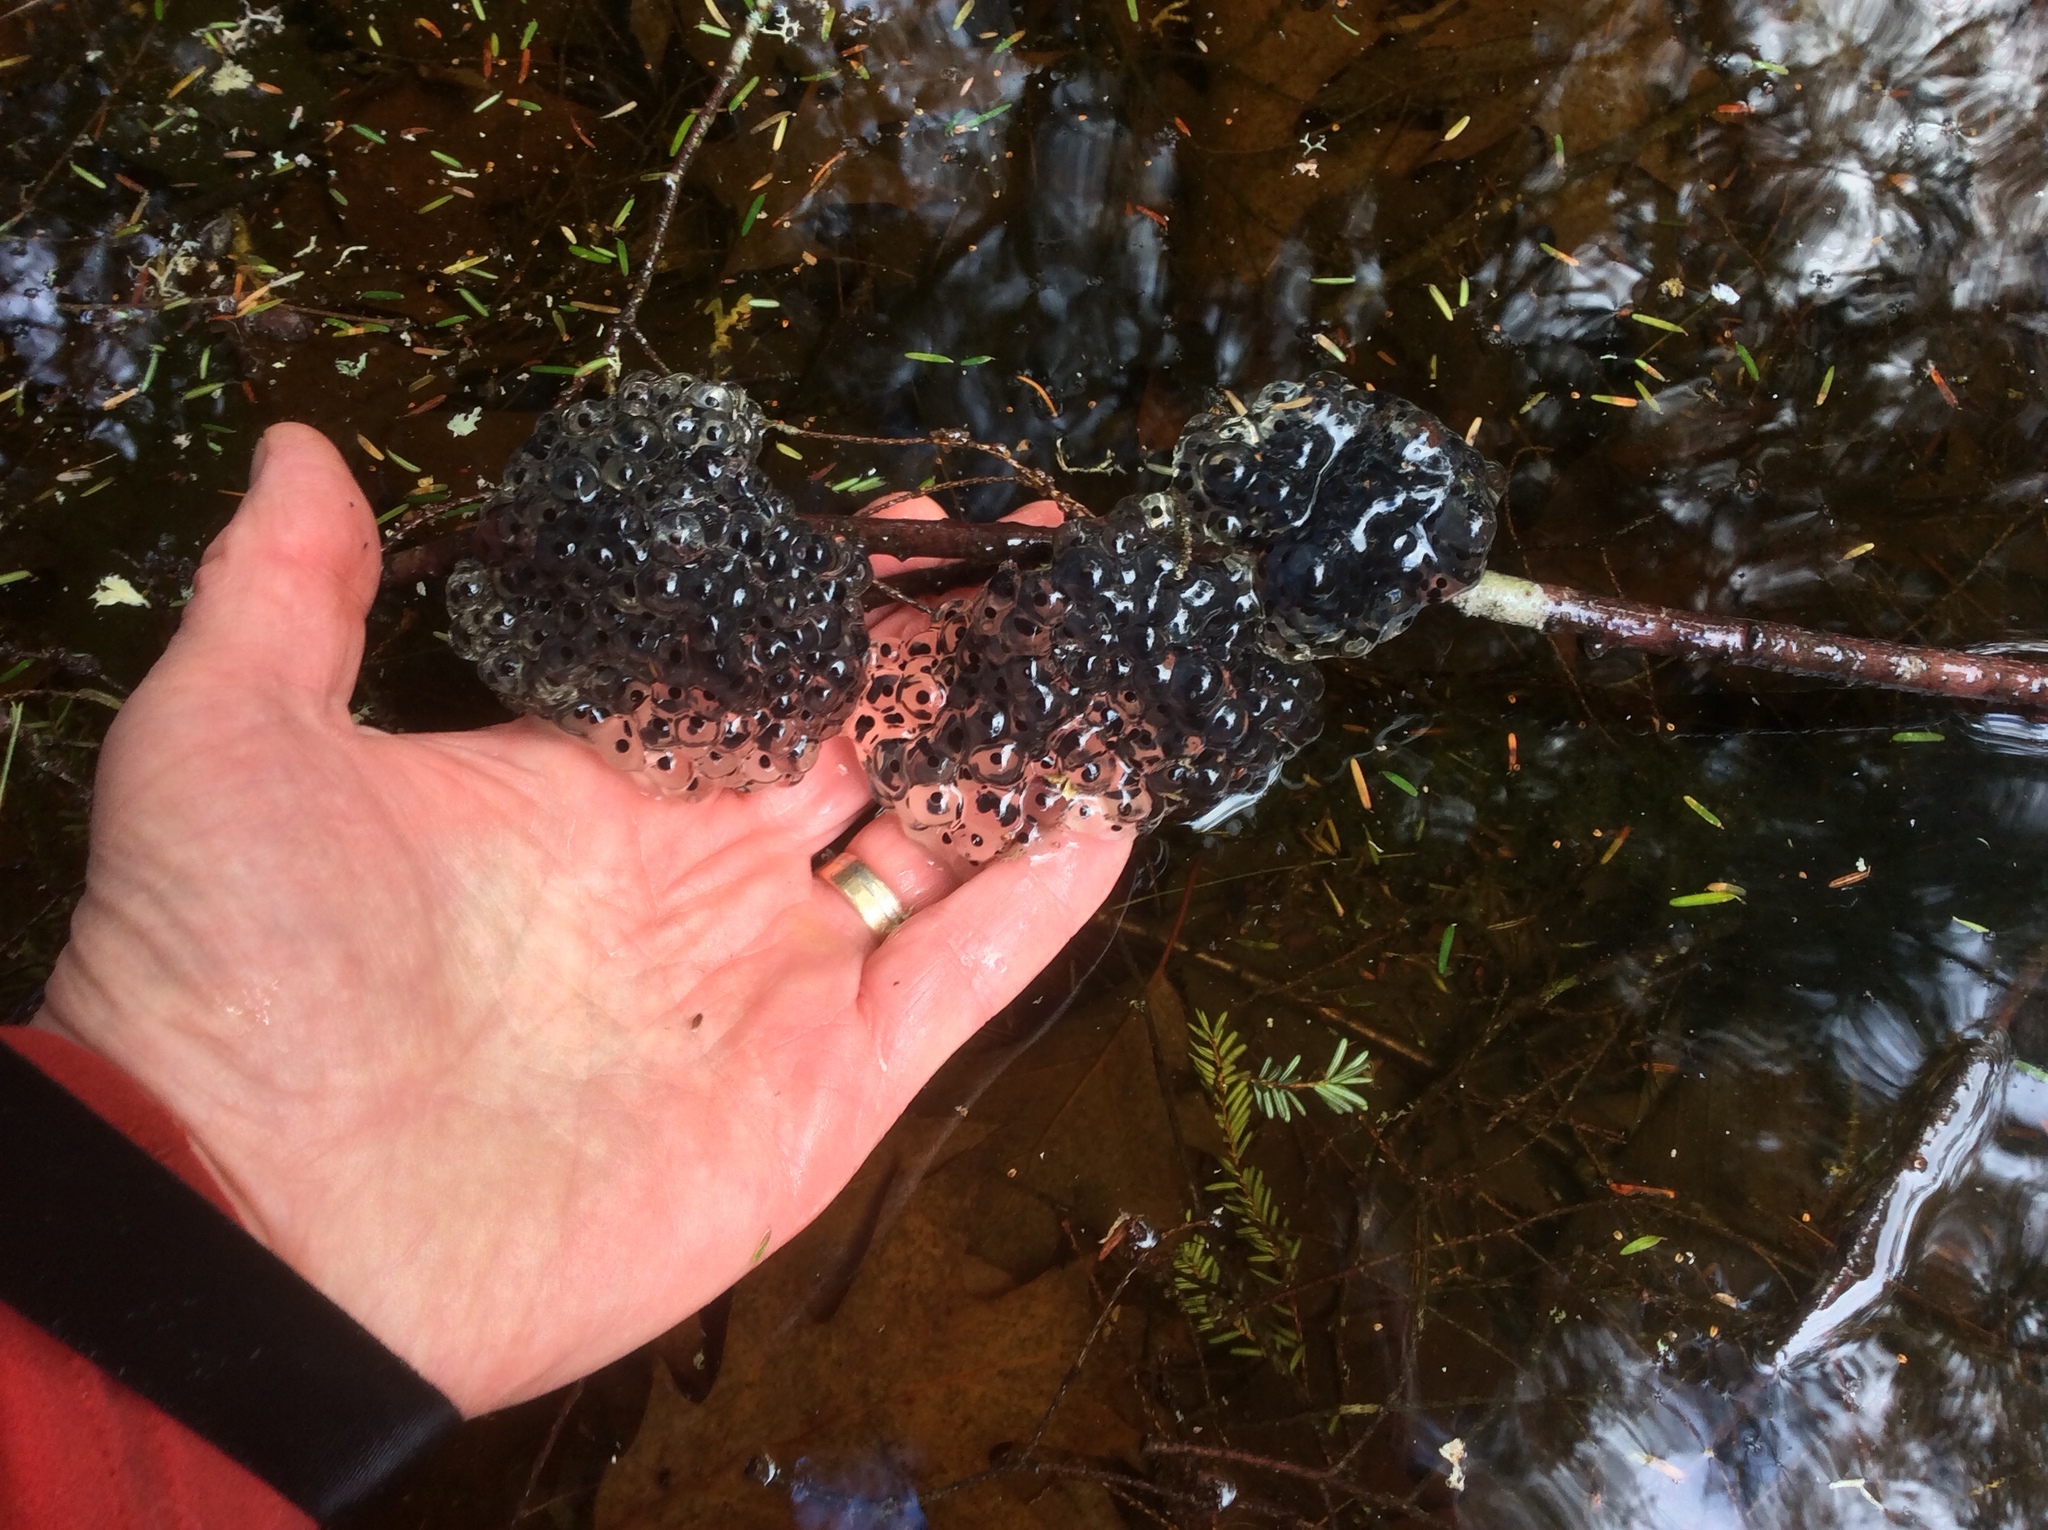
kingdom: Animalia
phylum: Chordata
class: Amphibia
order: Anura
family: Ranidae
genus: Lithobates
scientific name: Lithobates sylvaticus
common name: Wood frog
